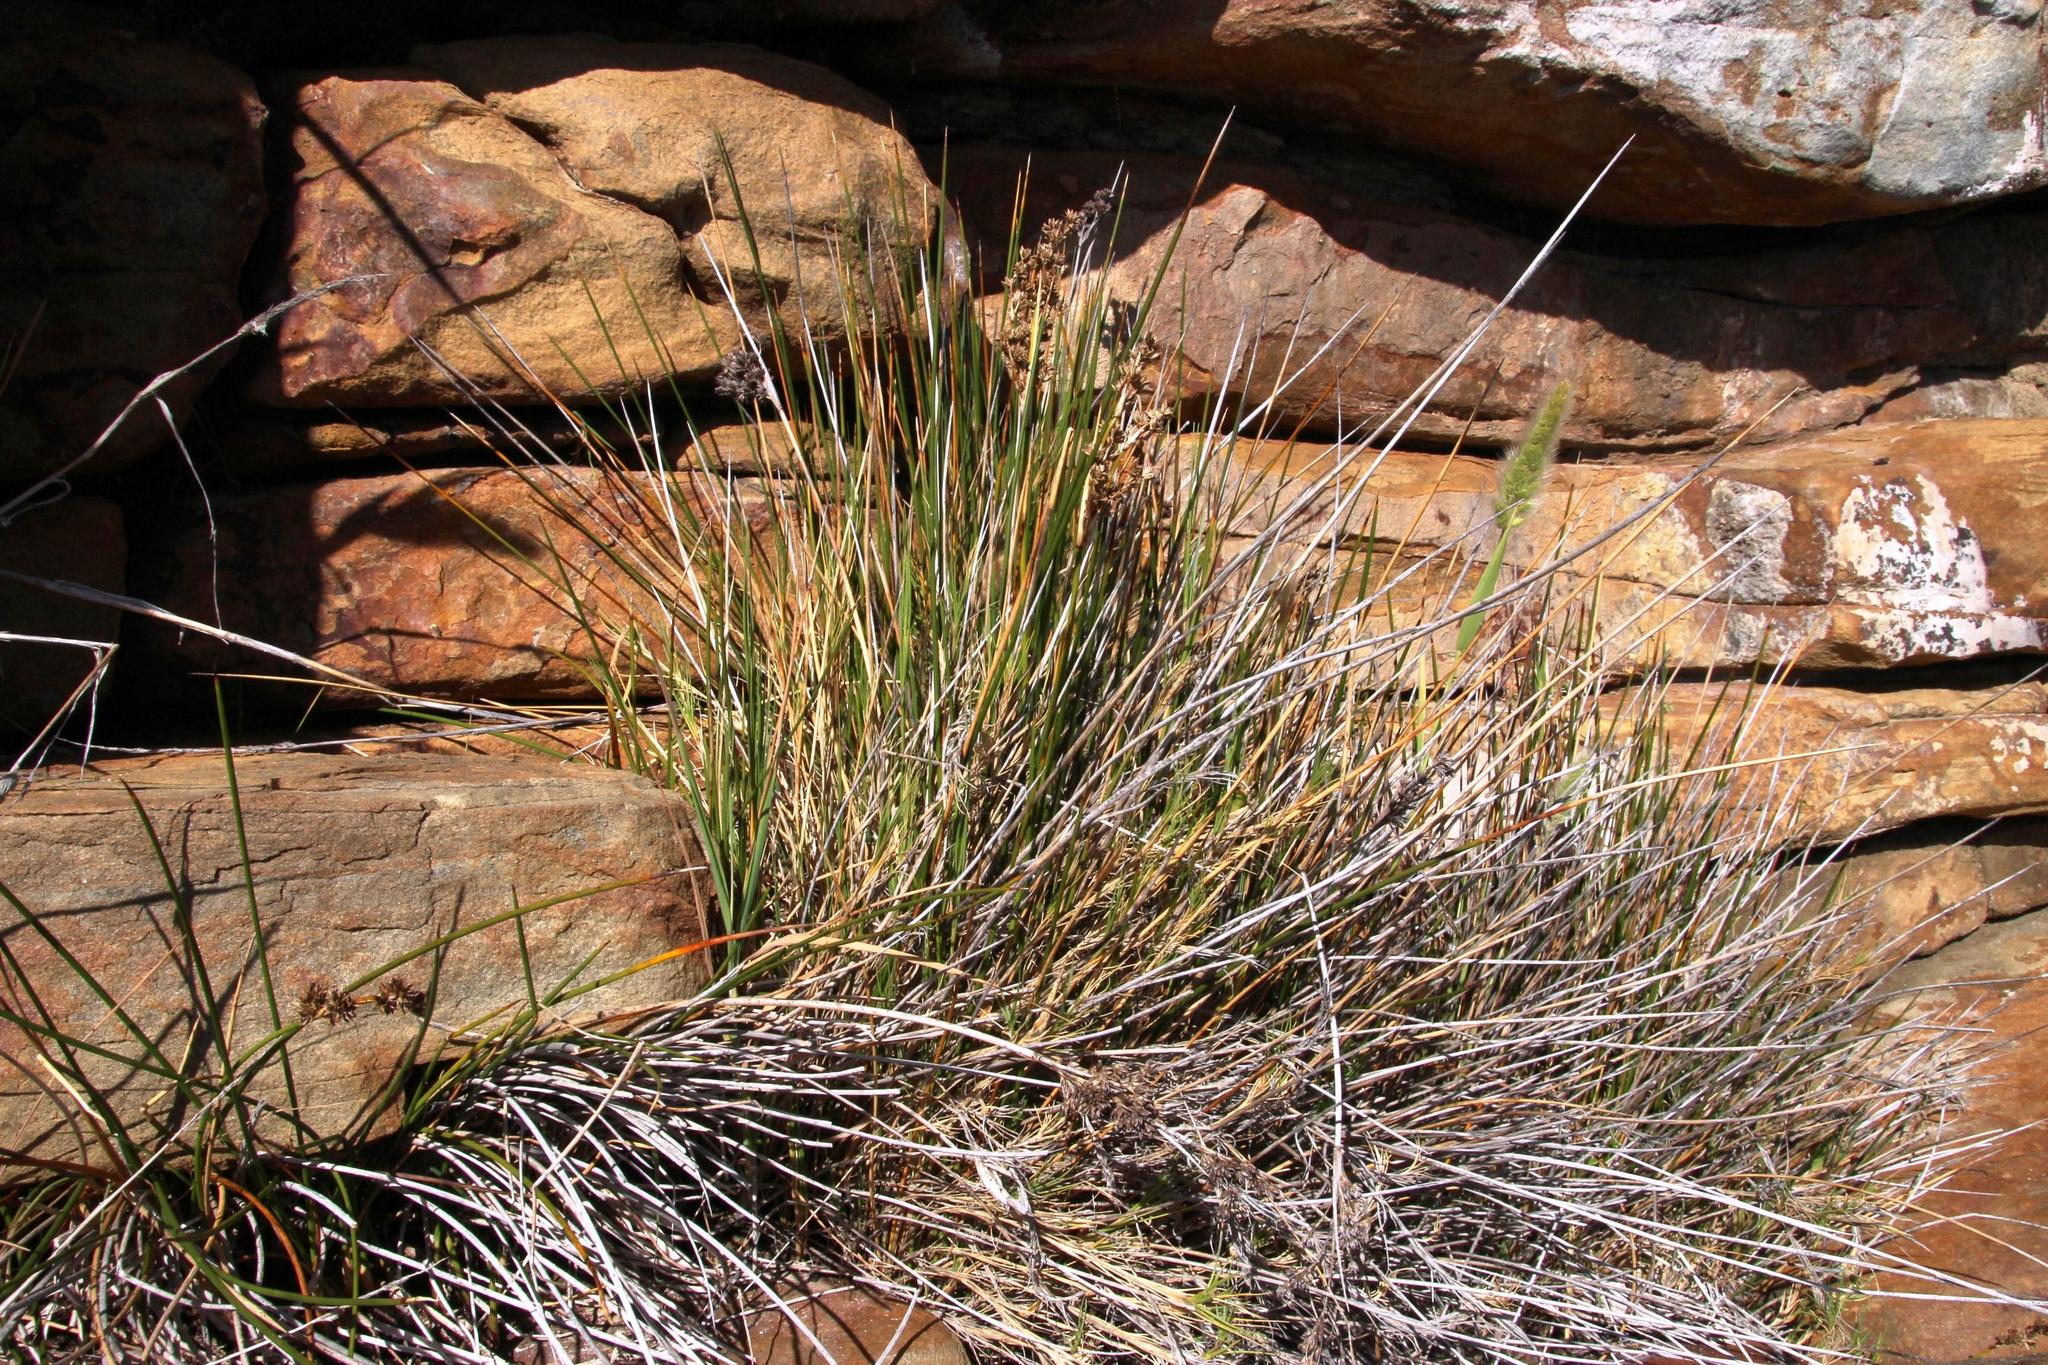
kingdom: Plantae
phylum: Tracheophyta
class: Liliopsida
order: Poales
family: Juncaceae
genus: Juncus
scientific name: Juncus kraussii
